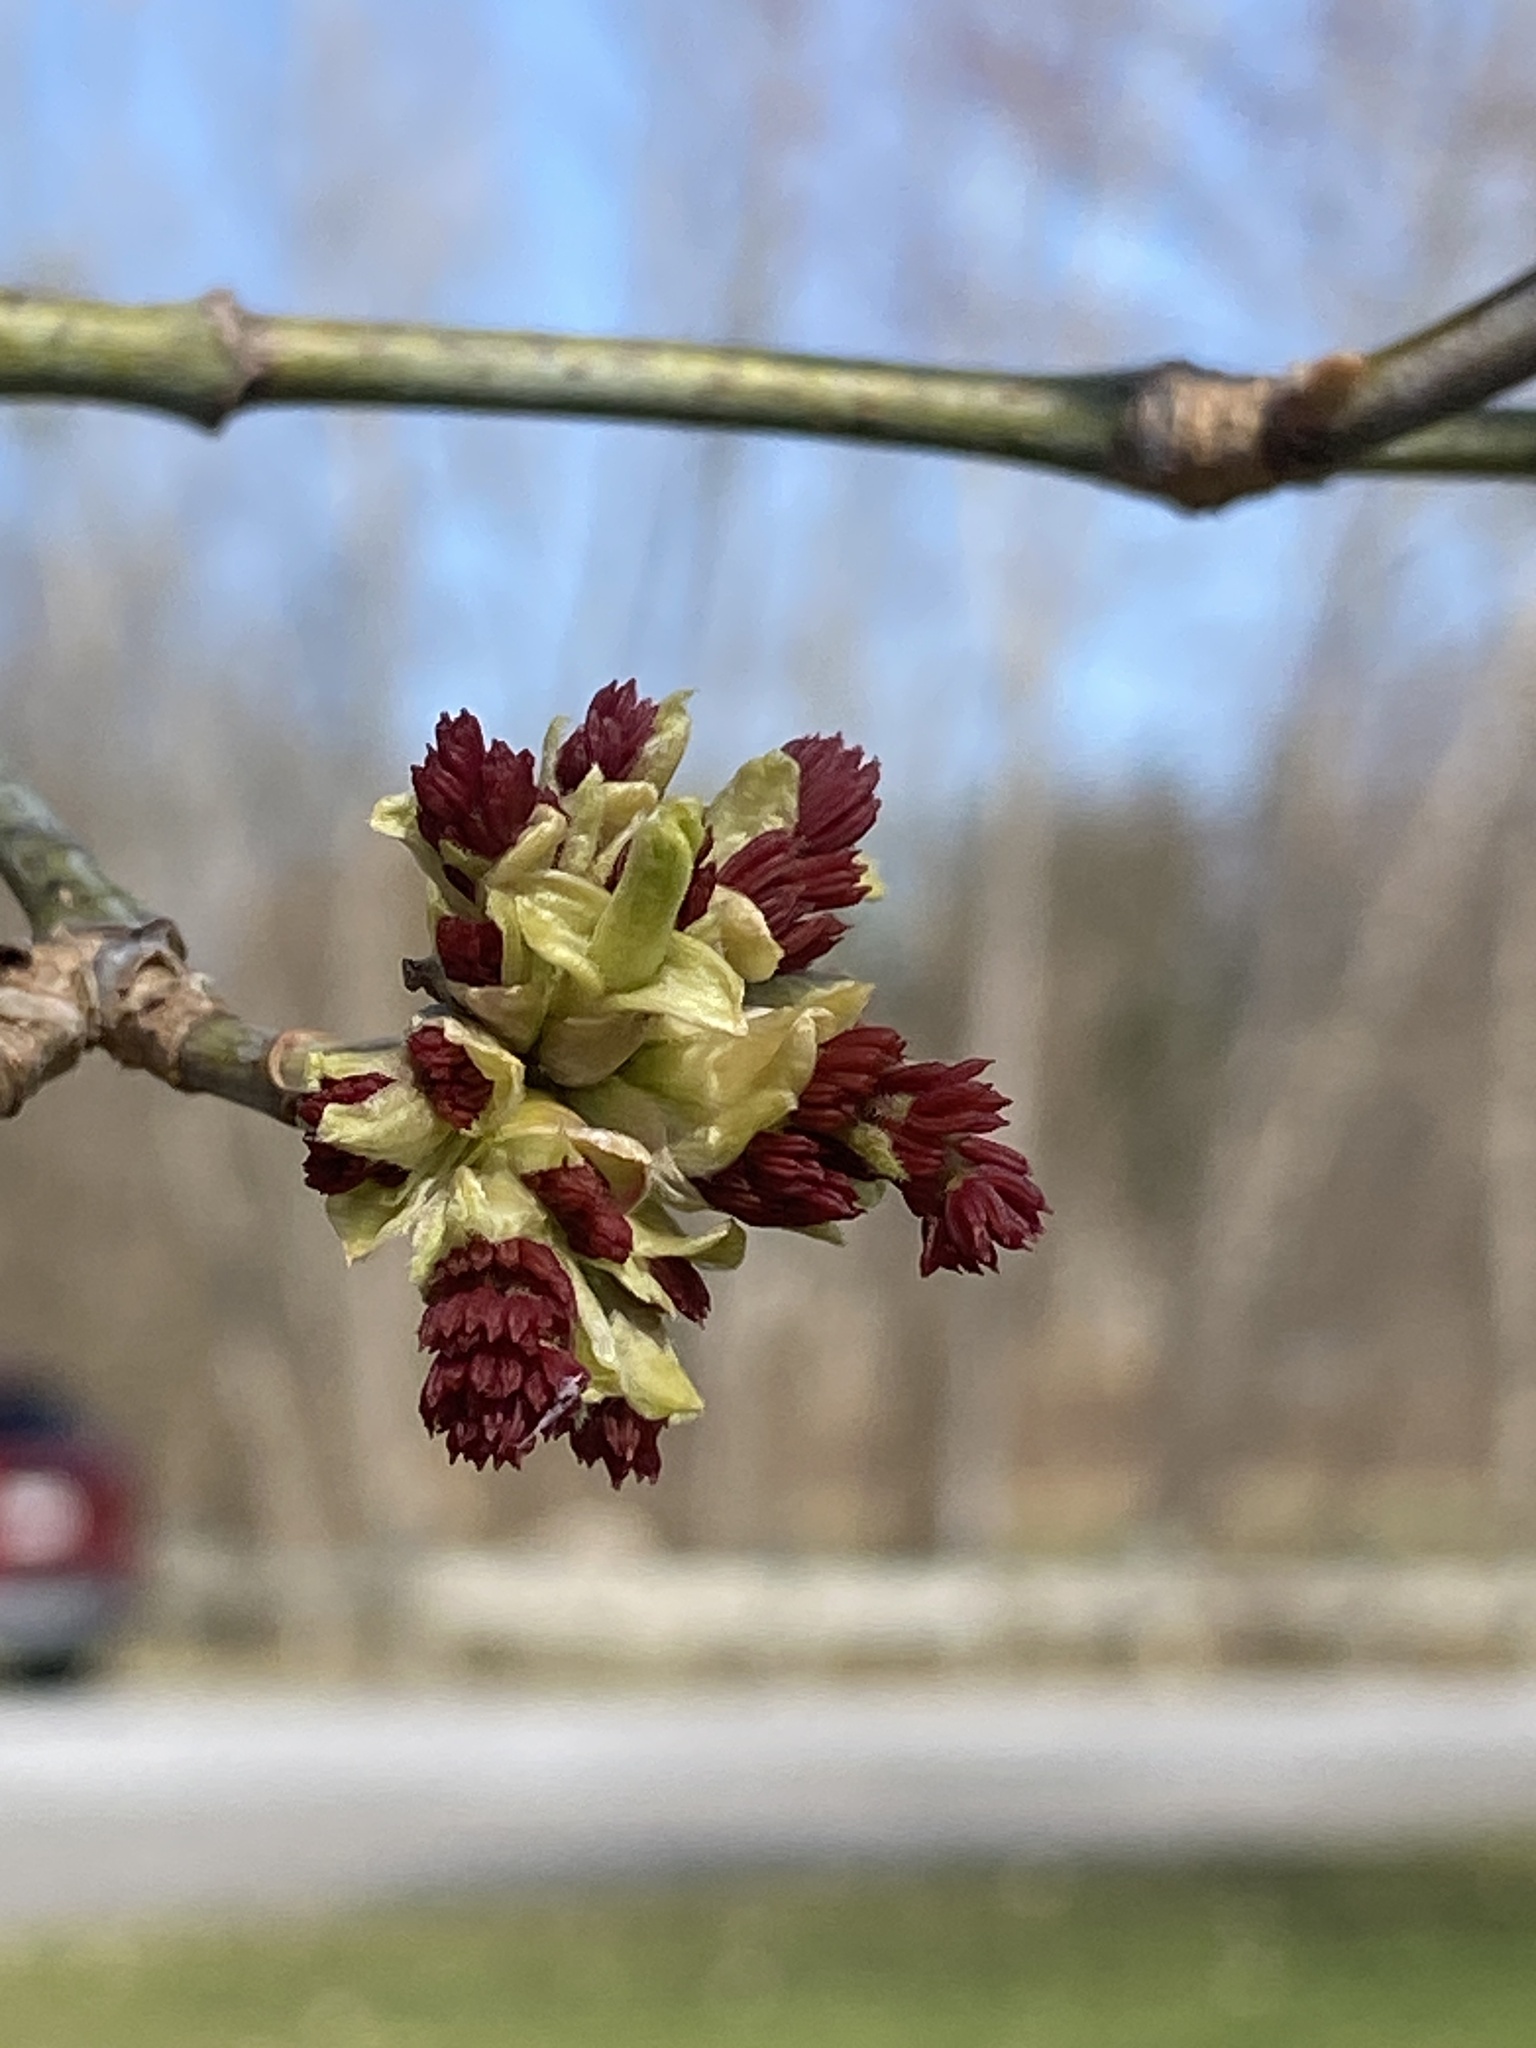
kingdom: Plantae
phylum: Tracheophyta
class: Magnoliopsida
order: Sapindales
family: Sapindaceae
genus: Acer
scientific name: Acer negundo
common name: Ashleaf maple
